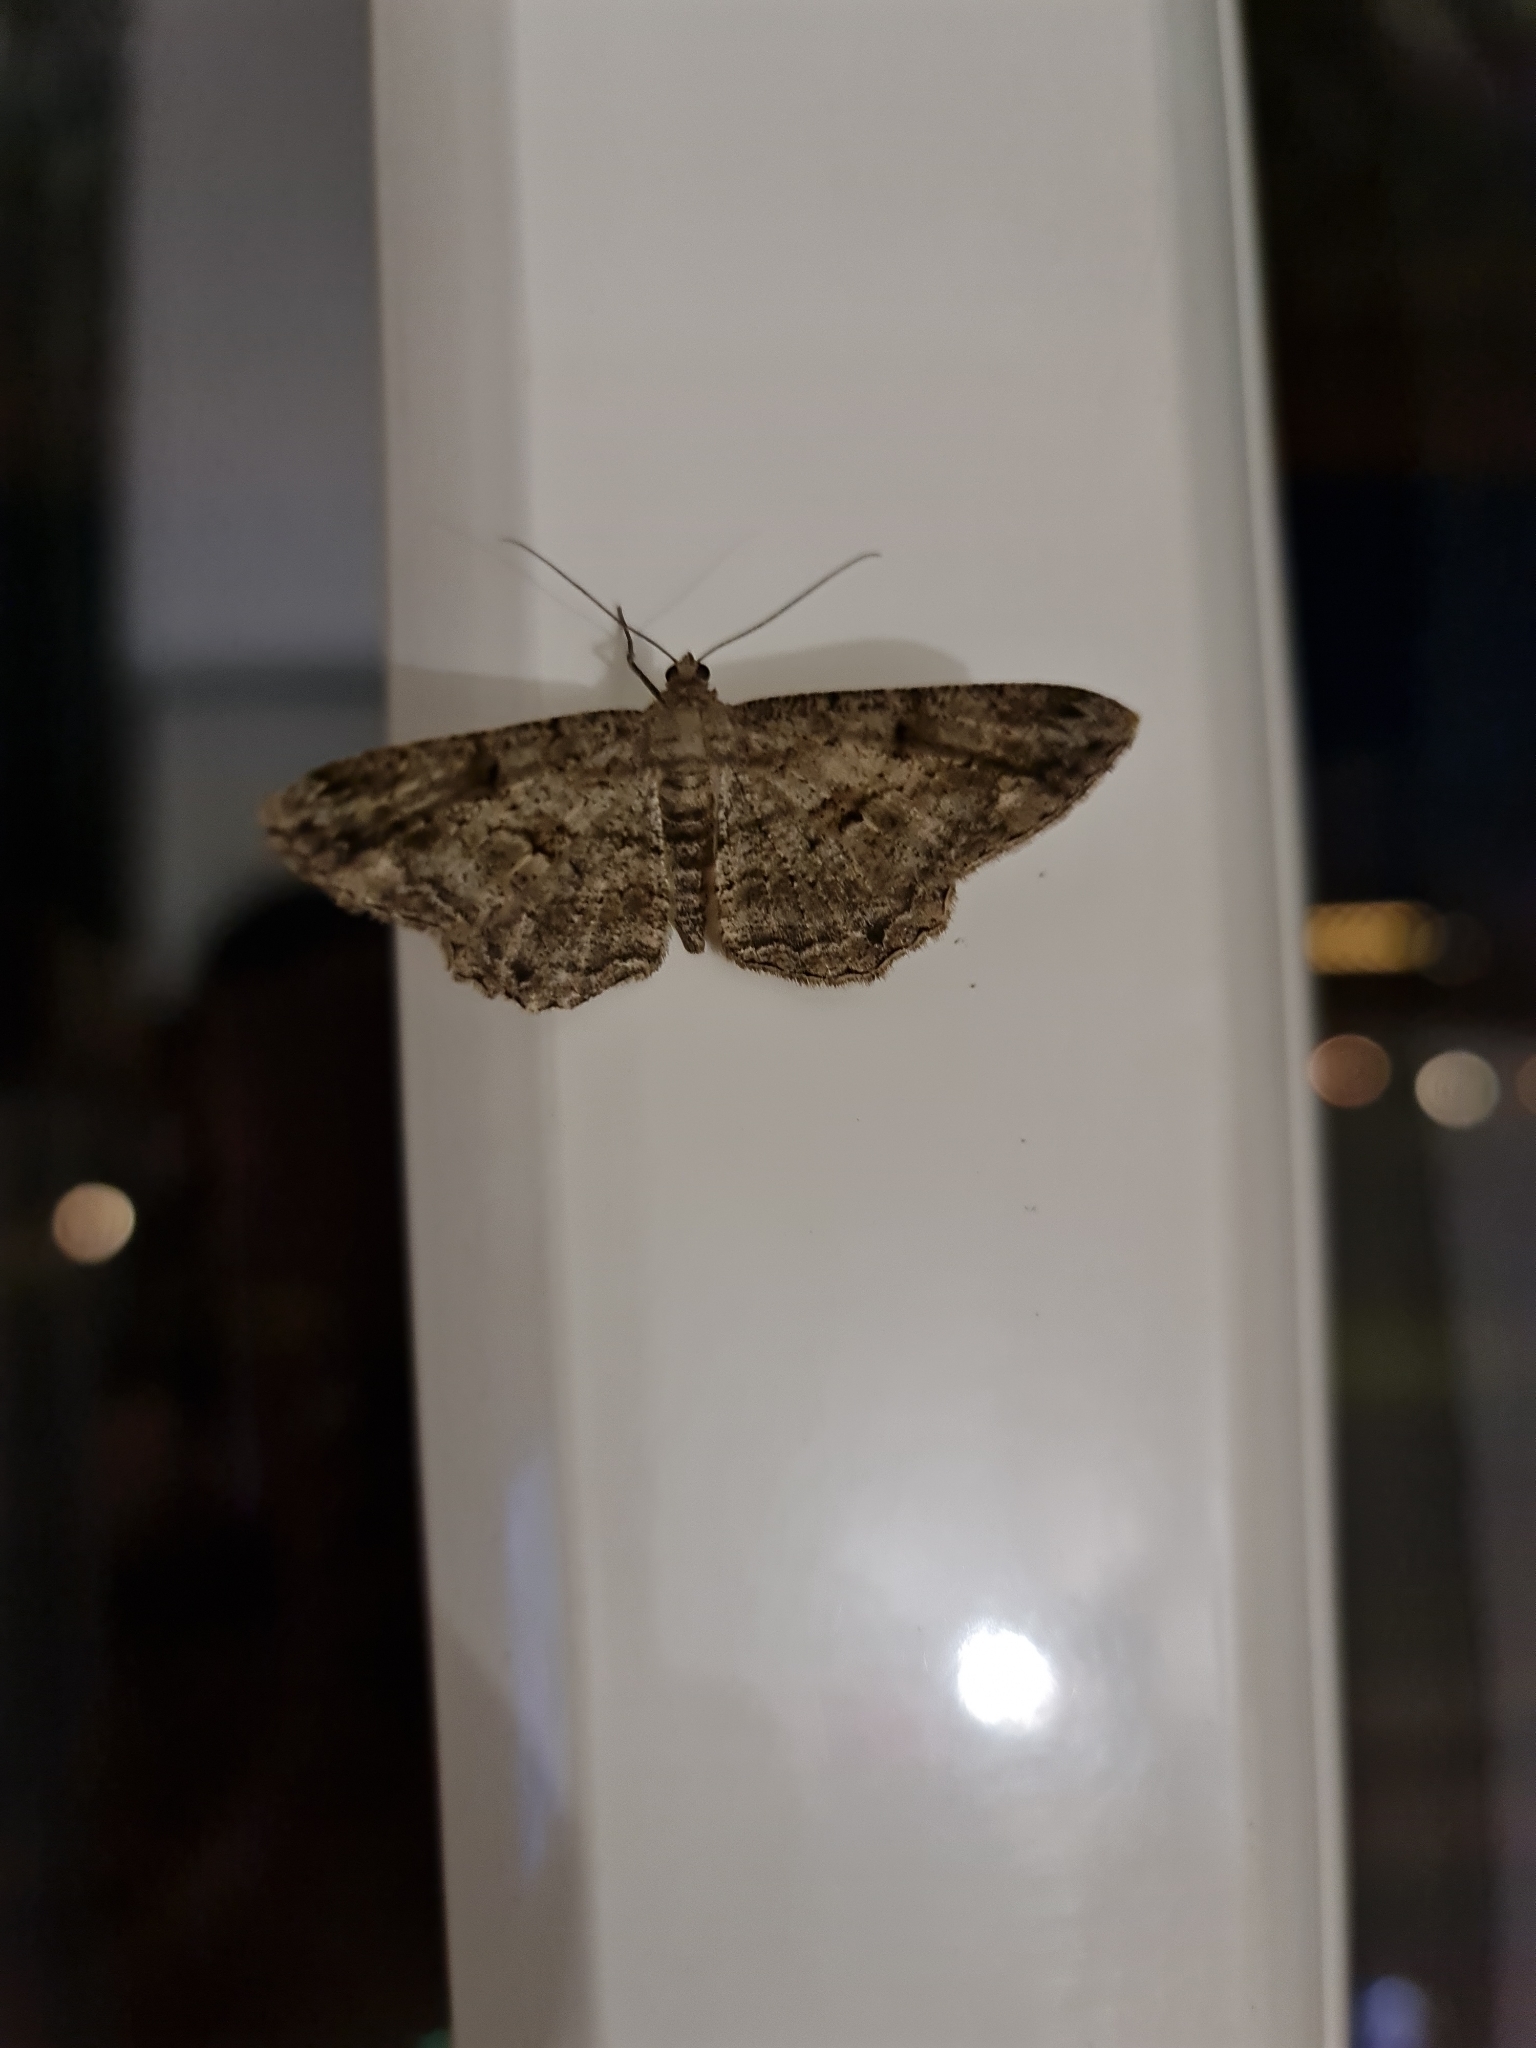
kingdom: Animalia
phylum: Arthropoda
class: Insecta
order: Lepidoptera
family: Geometridae
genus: Peribatodes
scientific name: Peribatodes rhomboidaria
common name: Willow beauty
